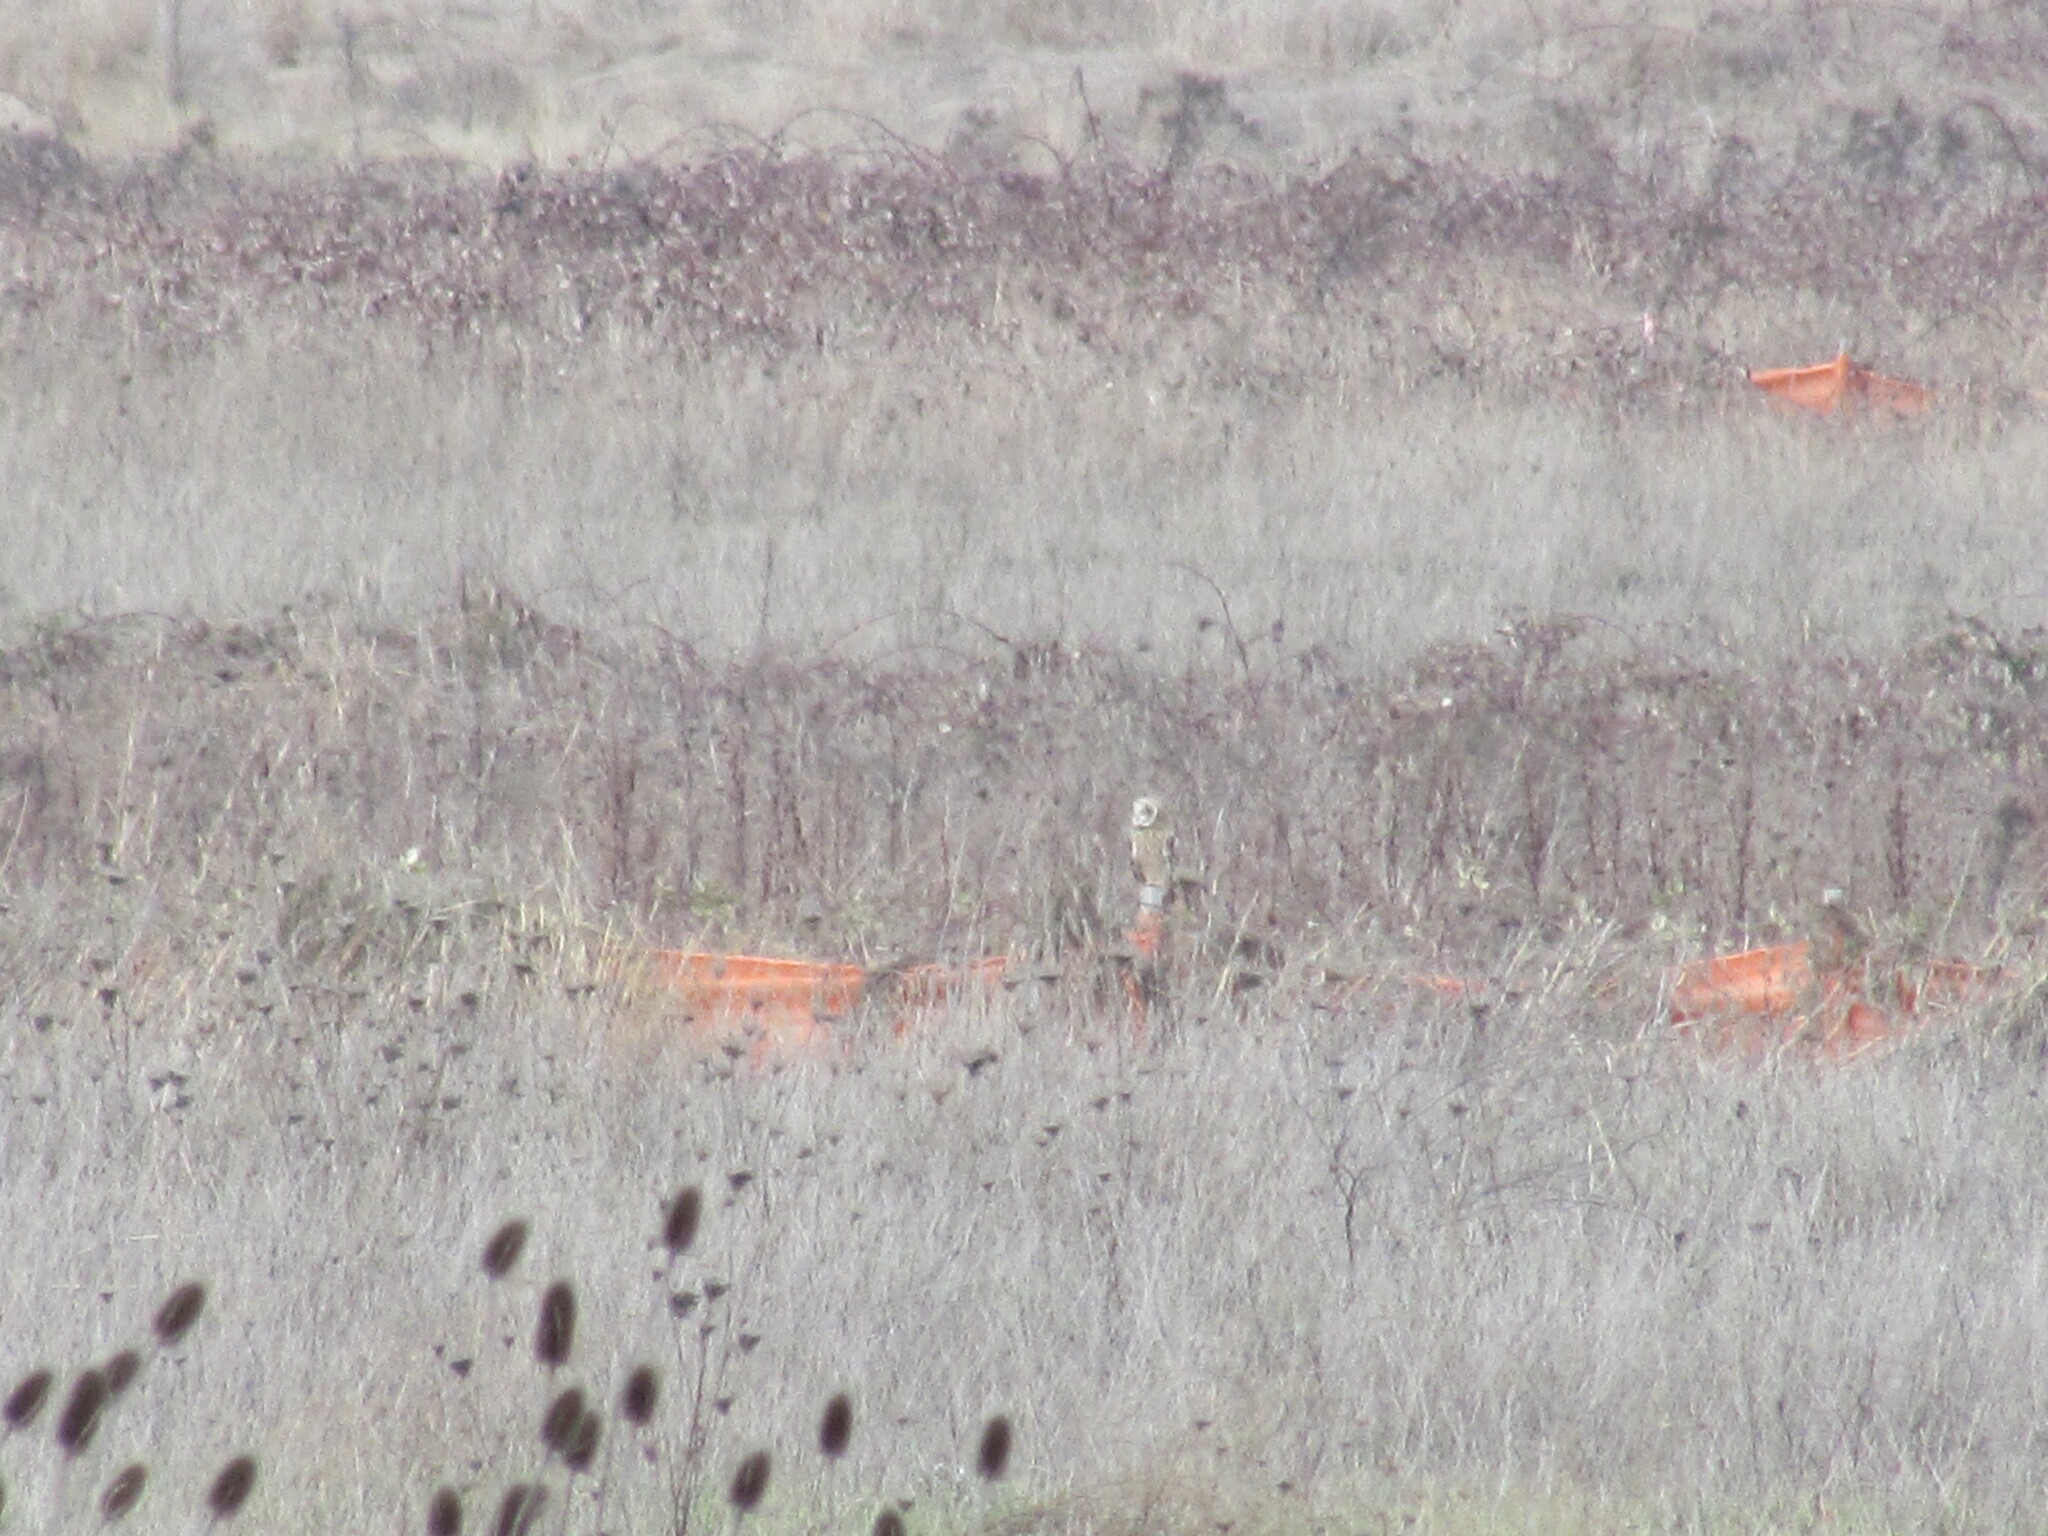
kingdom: Animalia
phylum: Chordata
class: Aves
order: Strigiformes
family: Strigidae
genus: Asio
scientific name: Asio flammeus
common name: Short-eared owl
